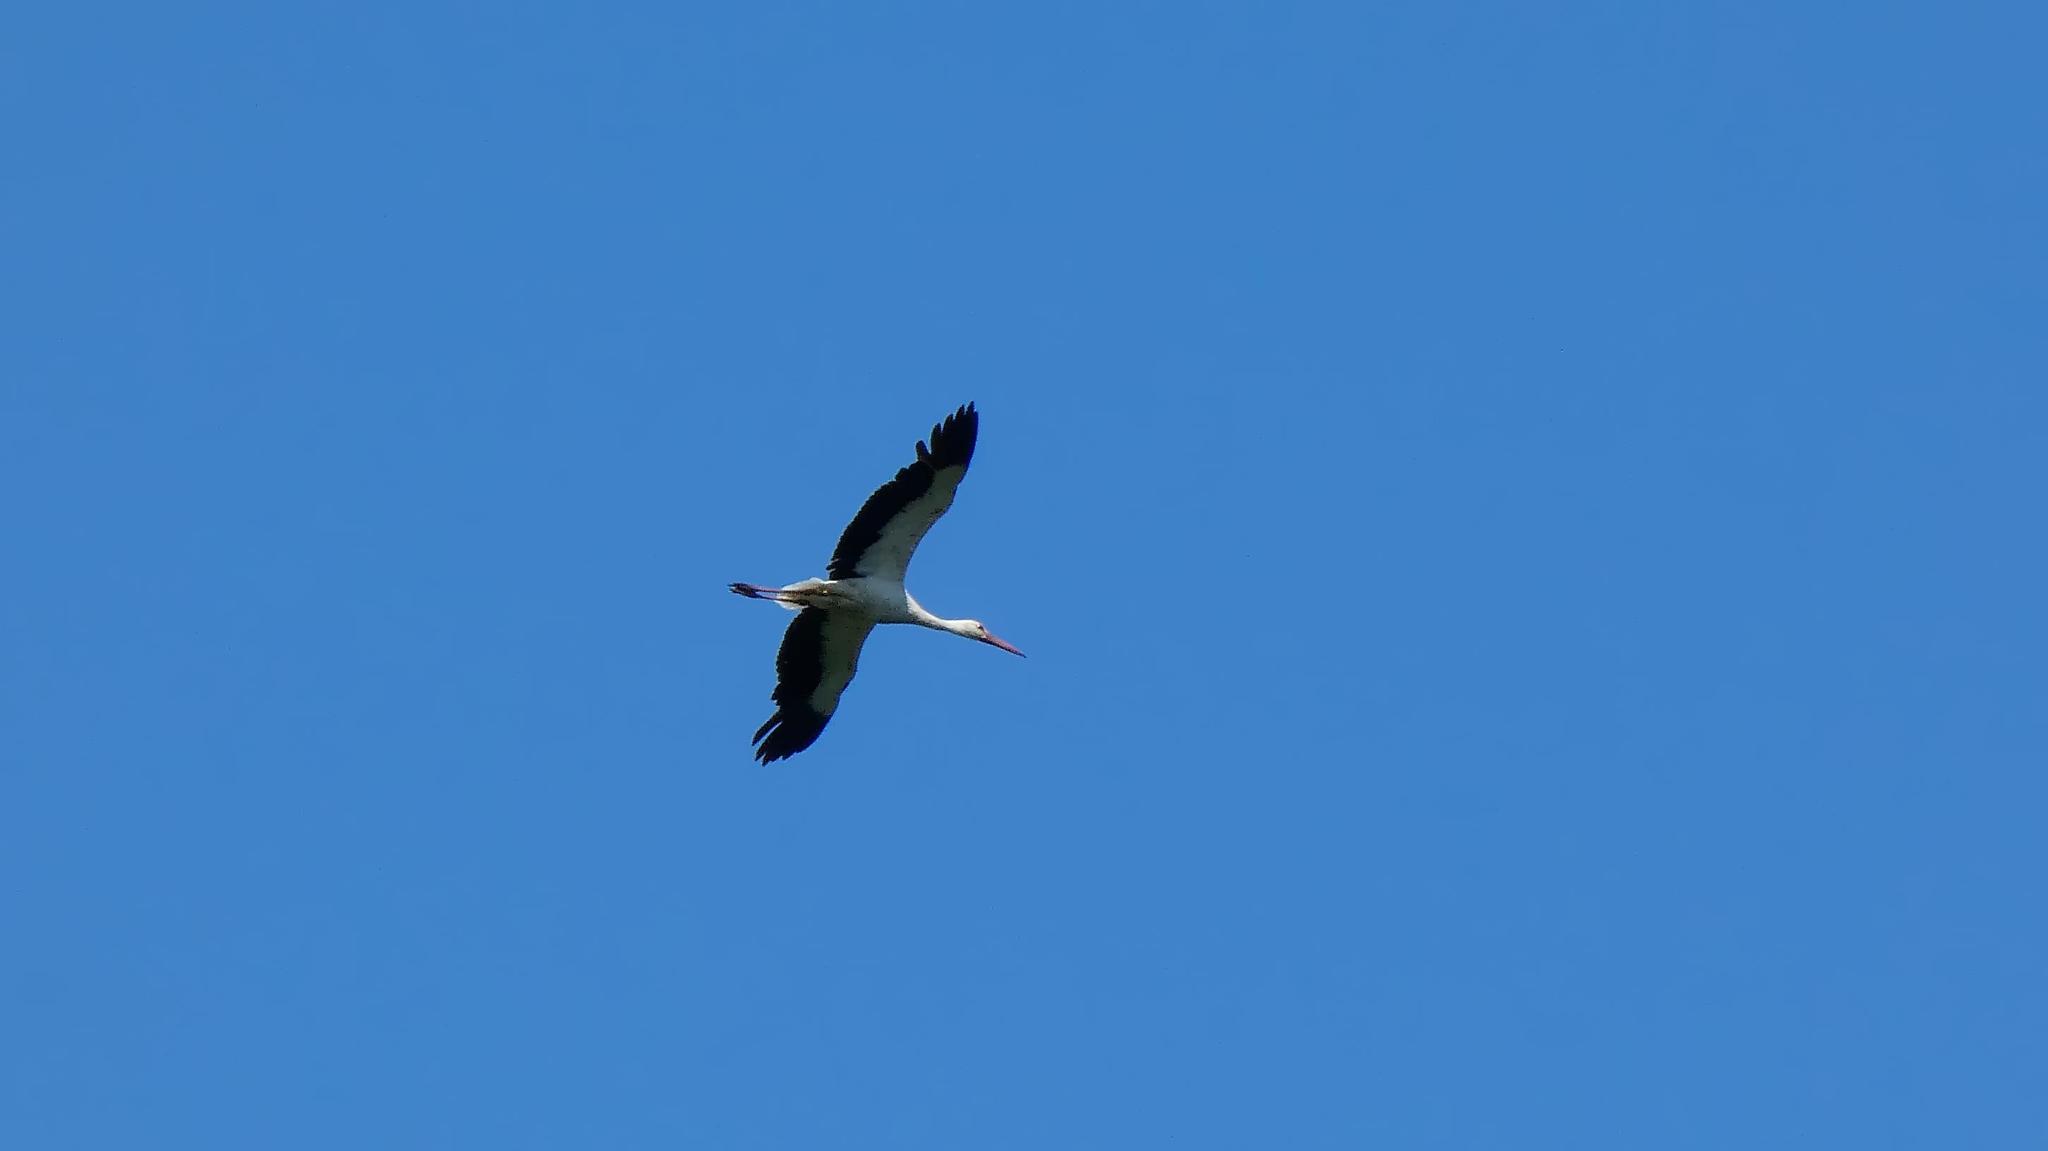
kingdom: Animalia
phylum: Chordata
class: Aves
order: Ciconiiformes
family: Ciconiidae
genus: Ciconia
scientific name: Ciconia ciconia
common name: White stork
